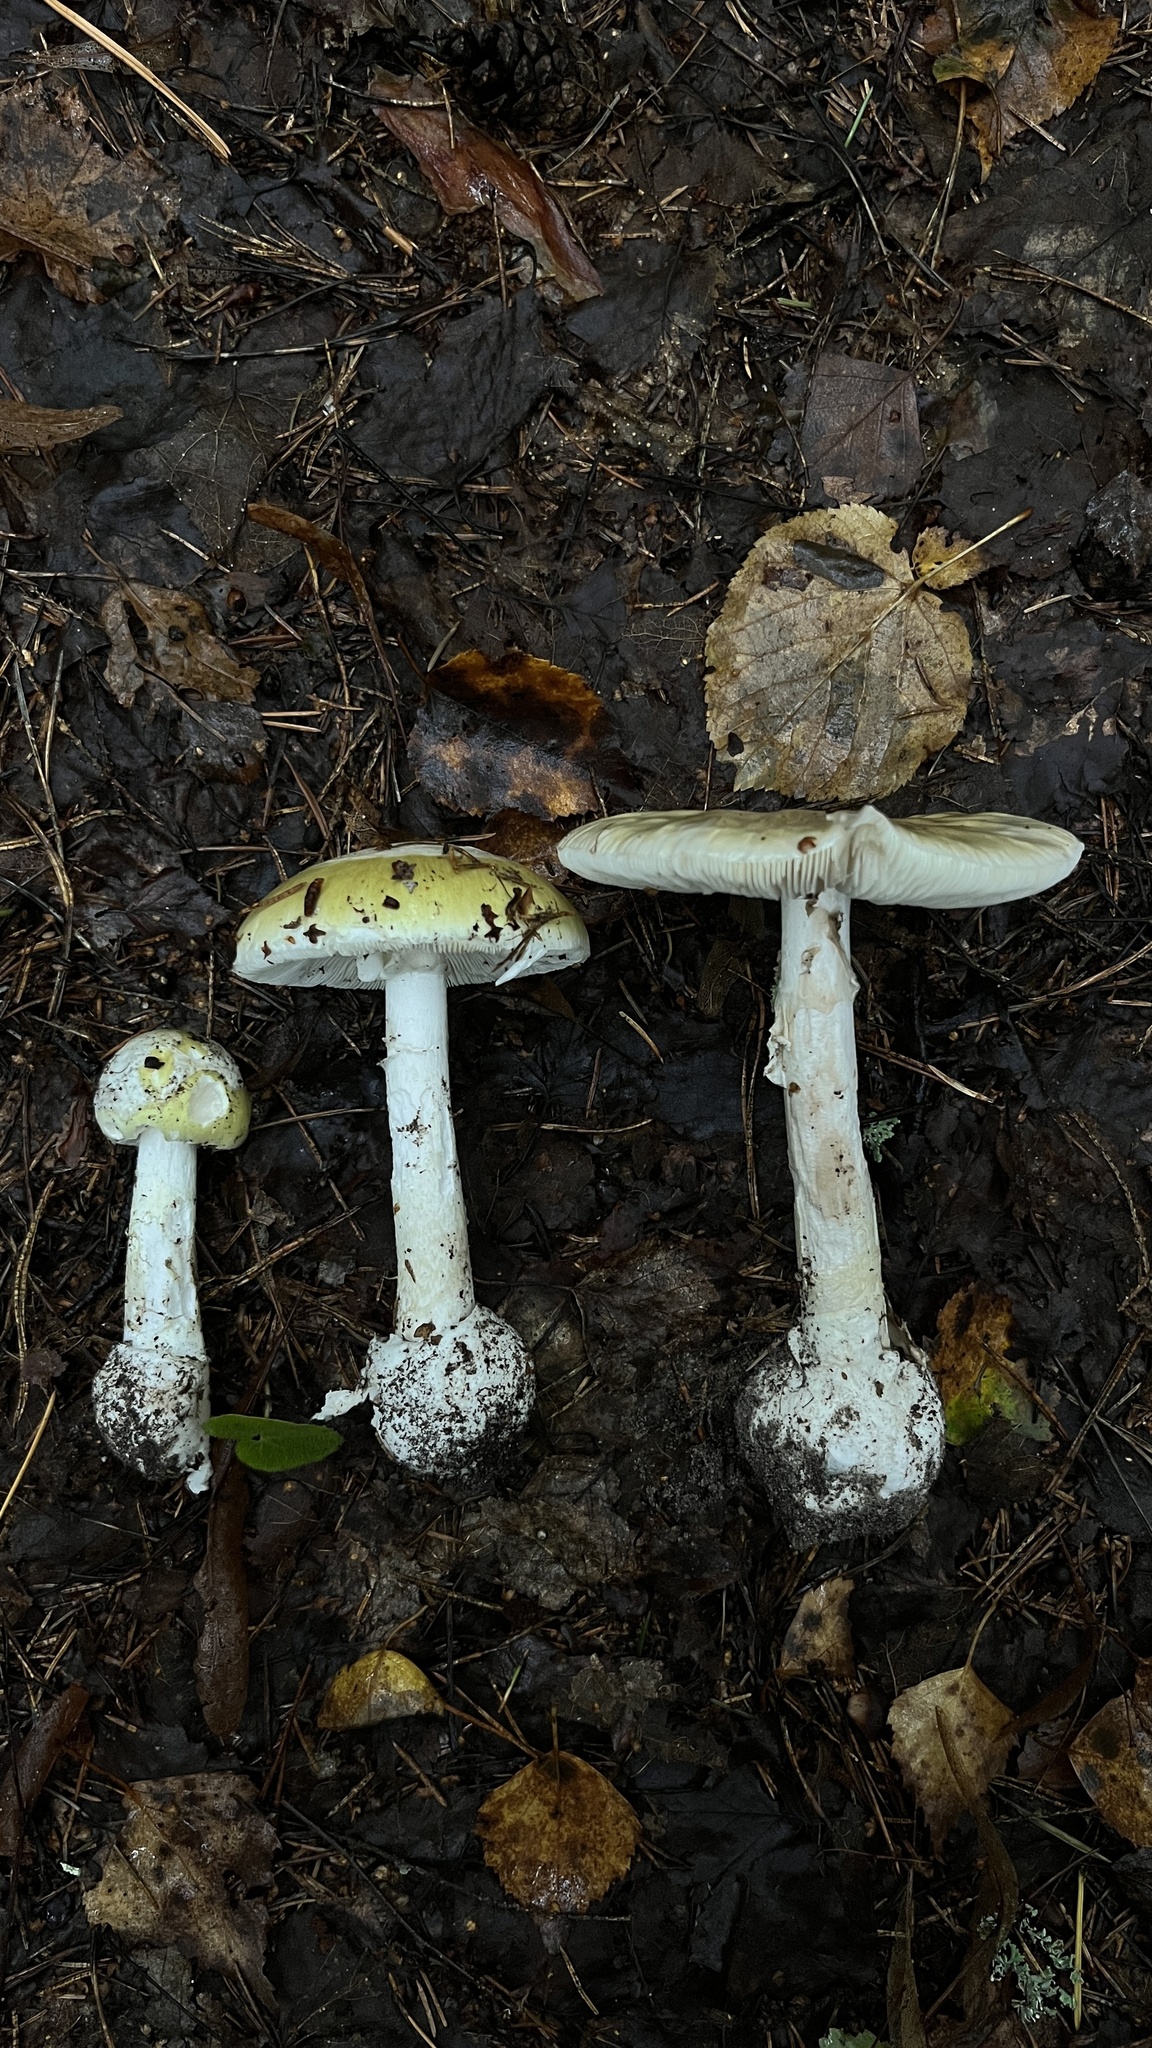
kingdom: Fungi
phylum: Basidiomycota
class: Agaricomycetes
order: Agaricales
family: Amanitaceae
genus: Amanita
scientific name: Amanita phalloides
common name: Death cap
